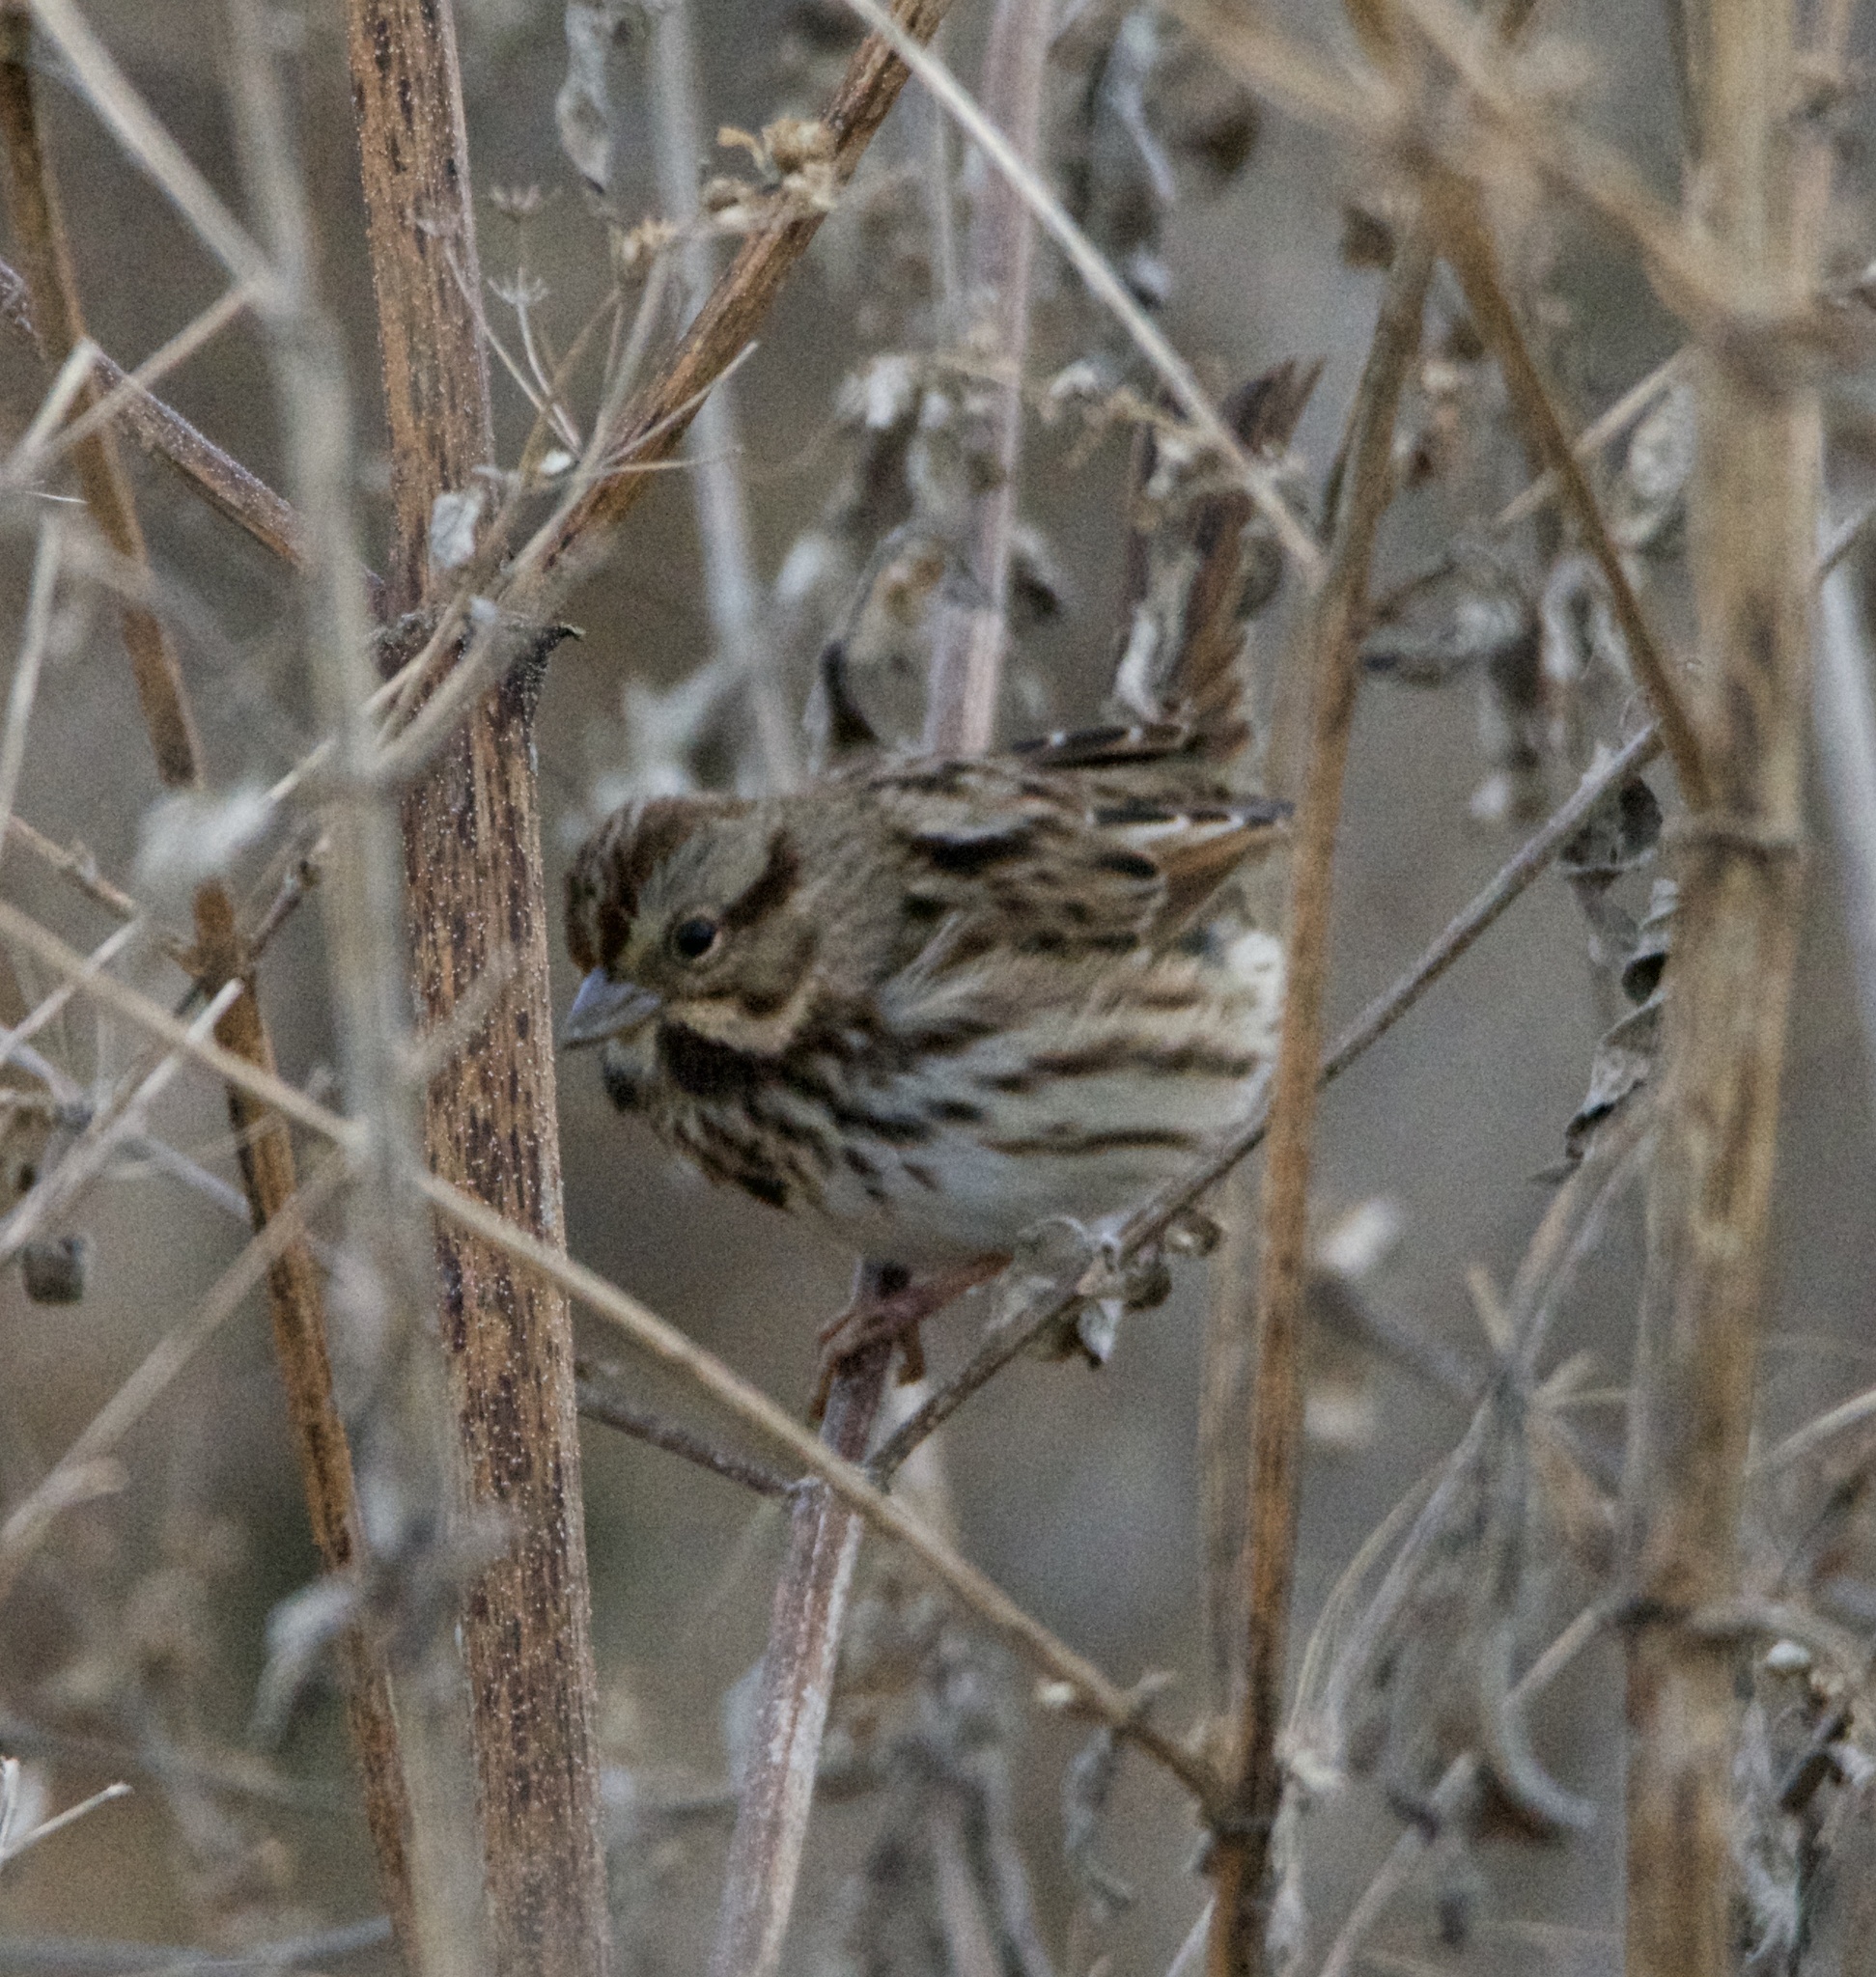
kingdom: Animalia
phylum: Chordata
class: Aves
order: Passeriformes
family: Passerellidae
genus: Melospiza
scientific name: Melospiza melodia
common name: Song sparrow
